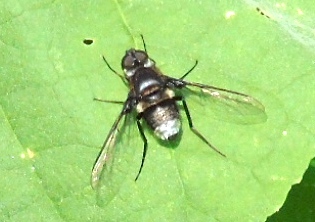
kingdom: Animalia
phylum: Arthropoda
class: Insecta
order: Diptera
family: Bombyliidae
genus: Anthrax
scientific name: Anthrax
